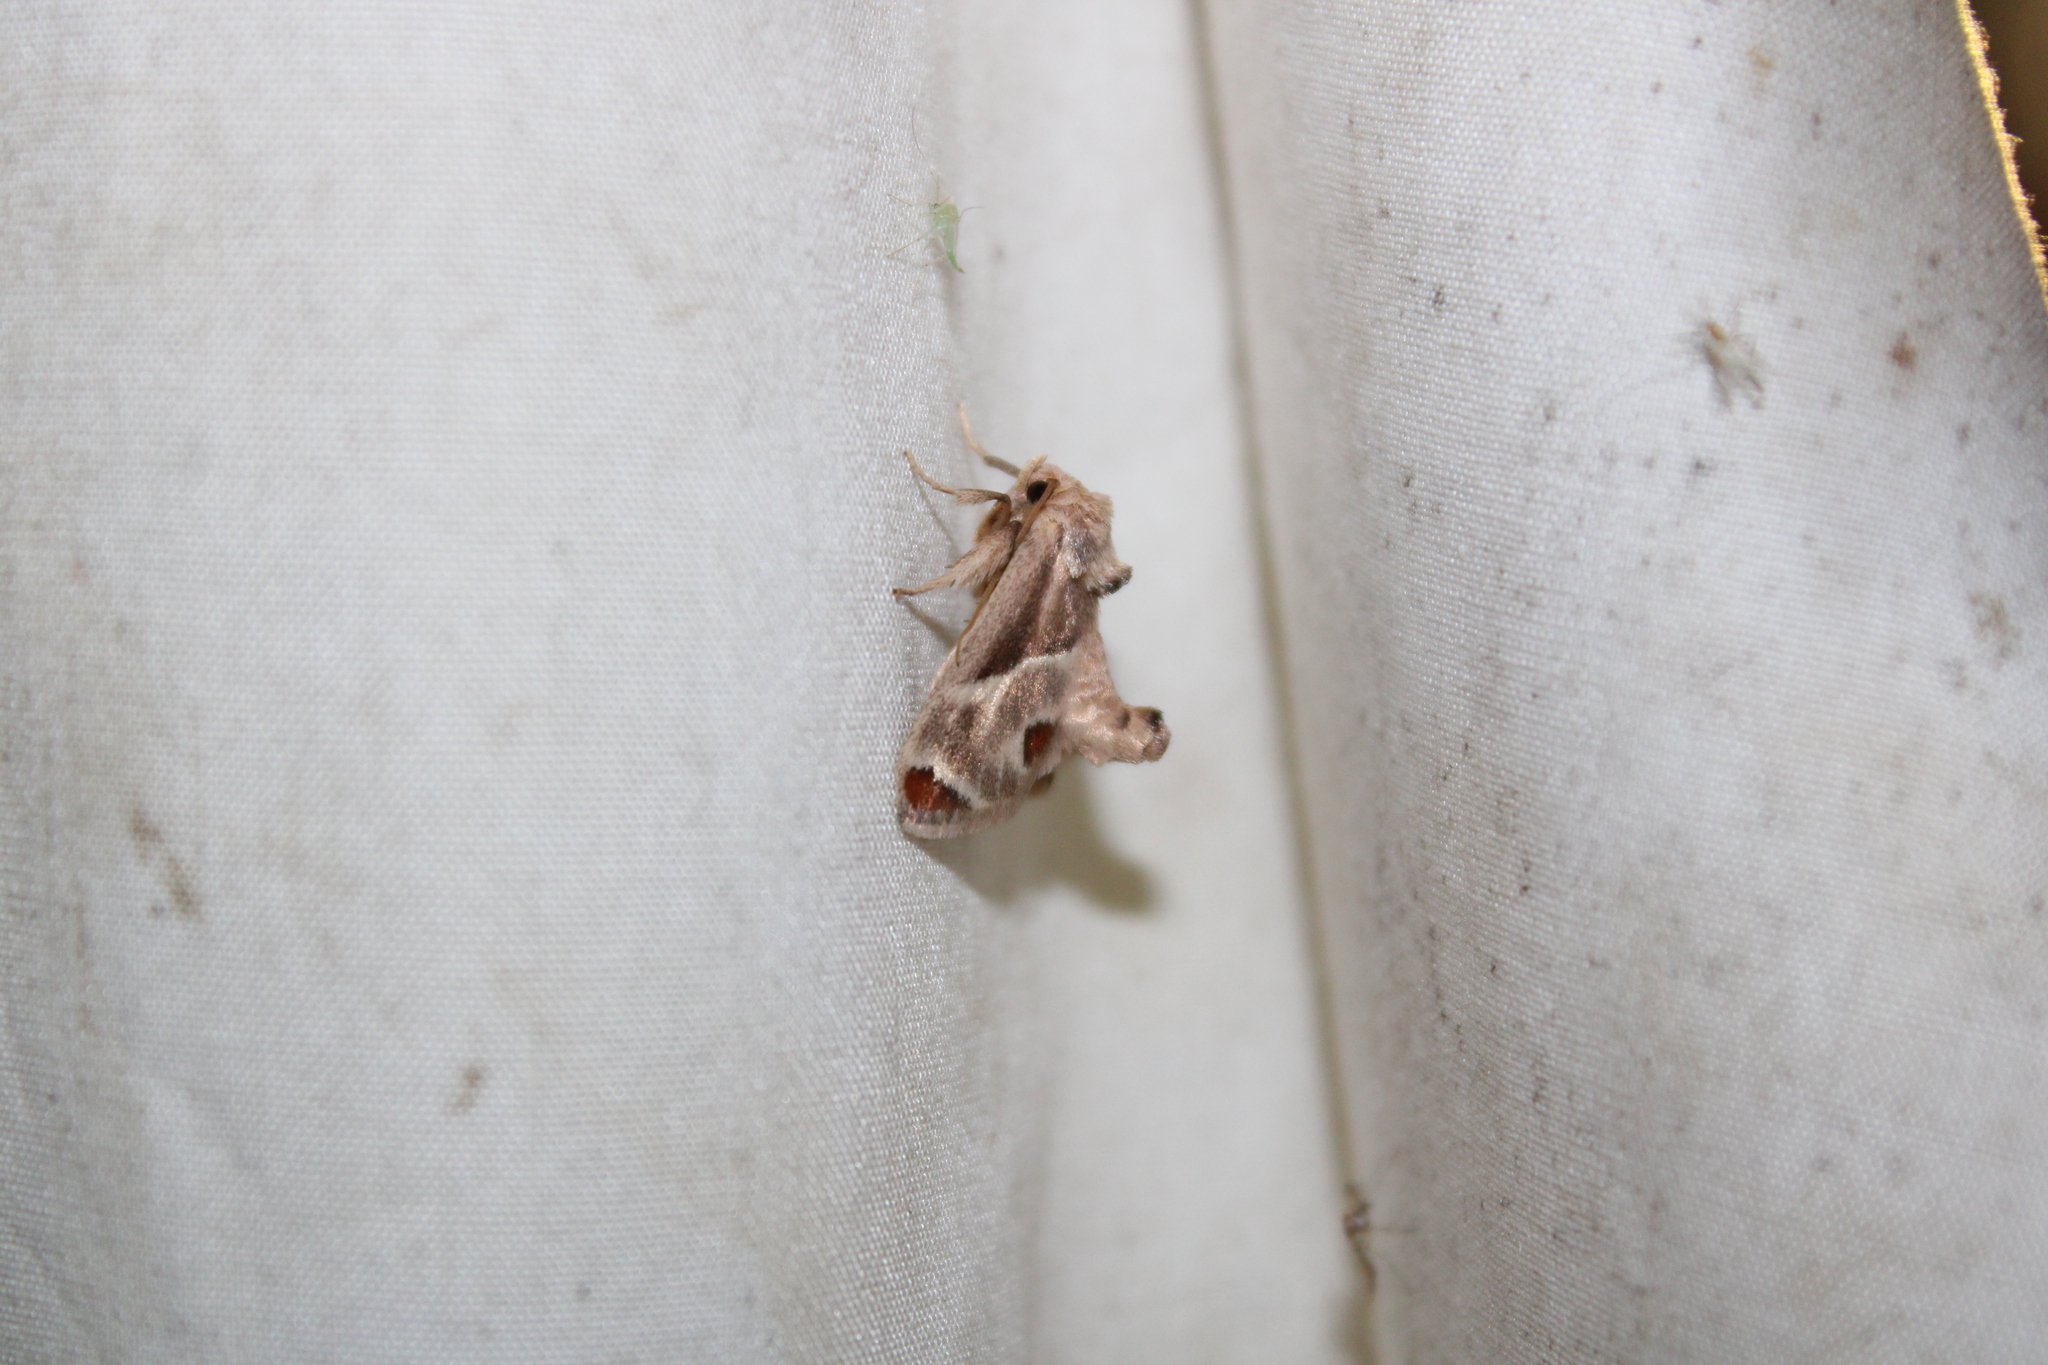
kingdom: Animalia
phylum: Arthropoda
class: Insecta
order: Lepidoptera
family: Limacodidae
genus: Apoda
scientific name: Apoda biguttata
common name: Shagreened slug moth
